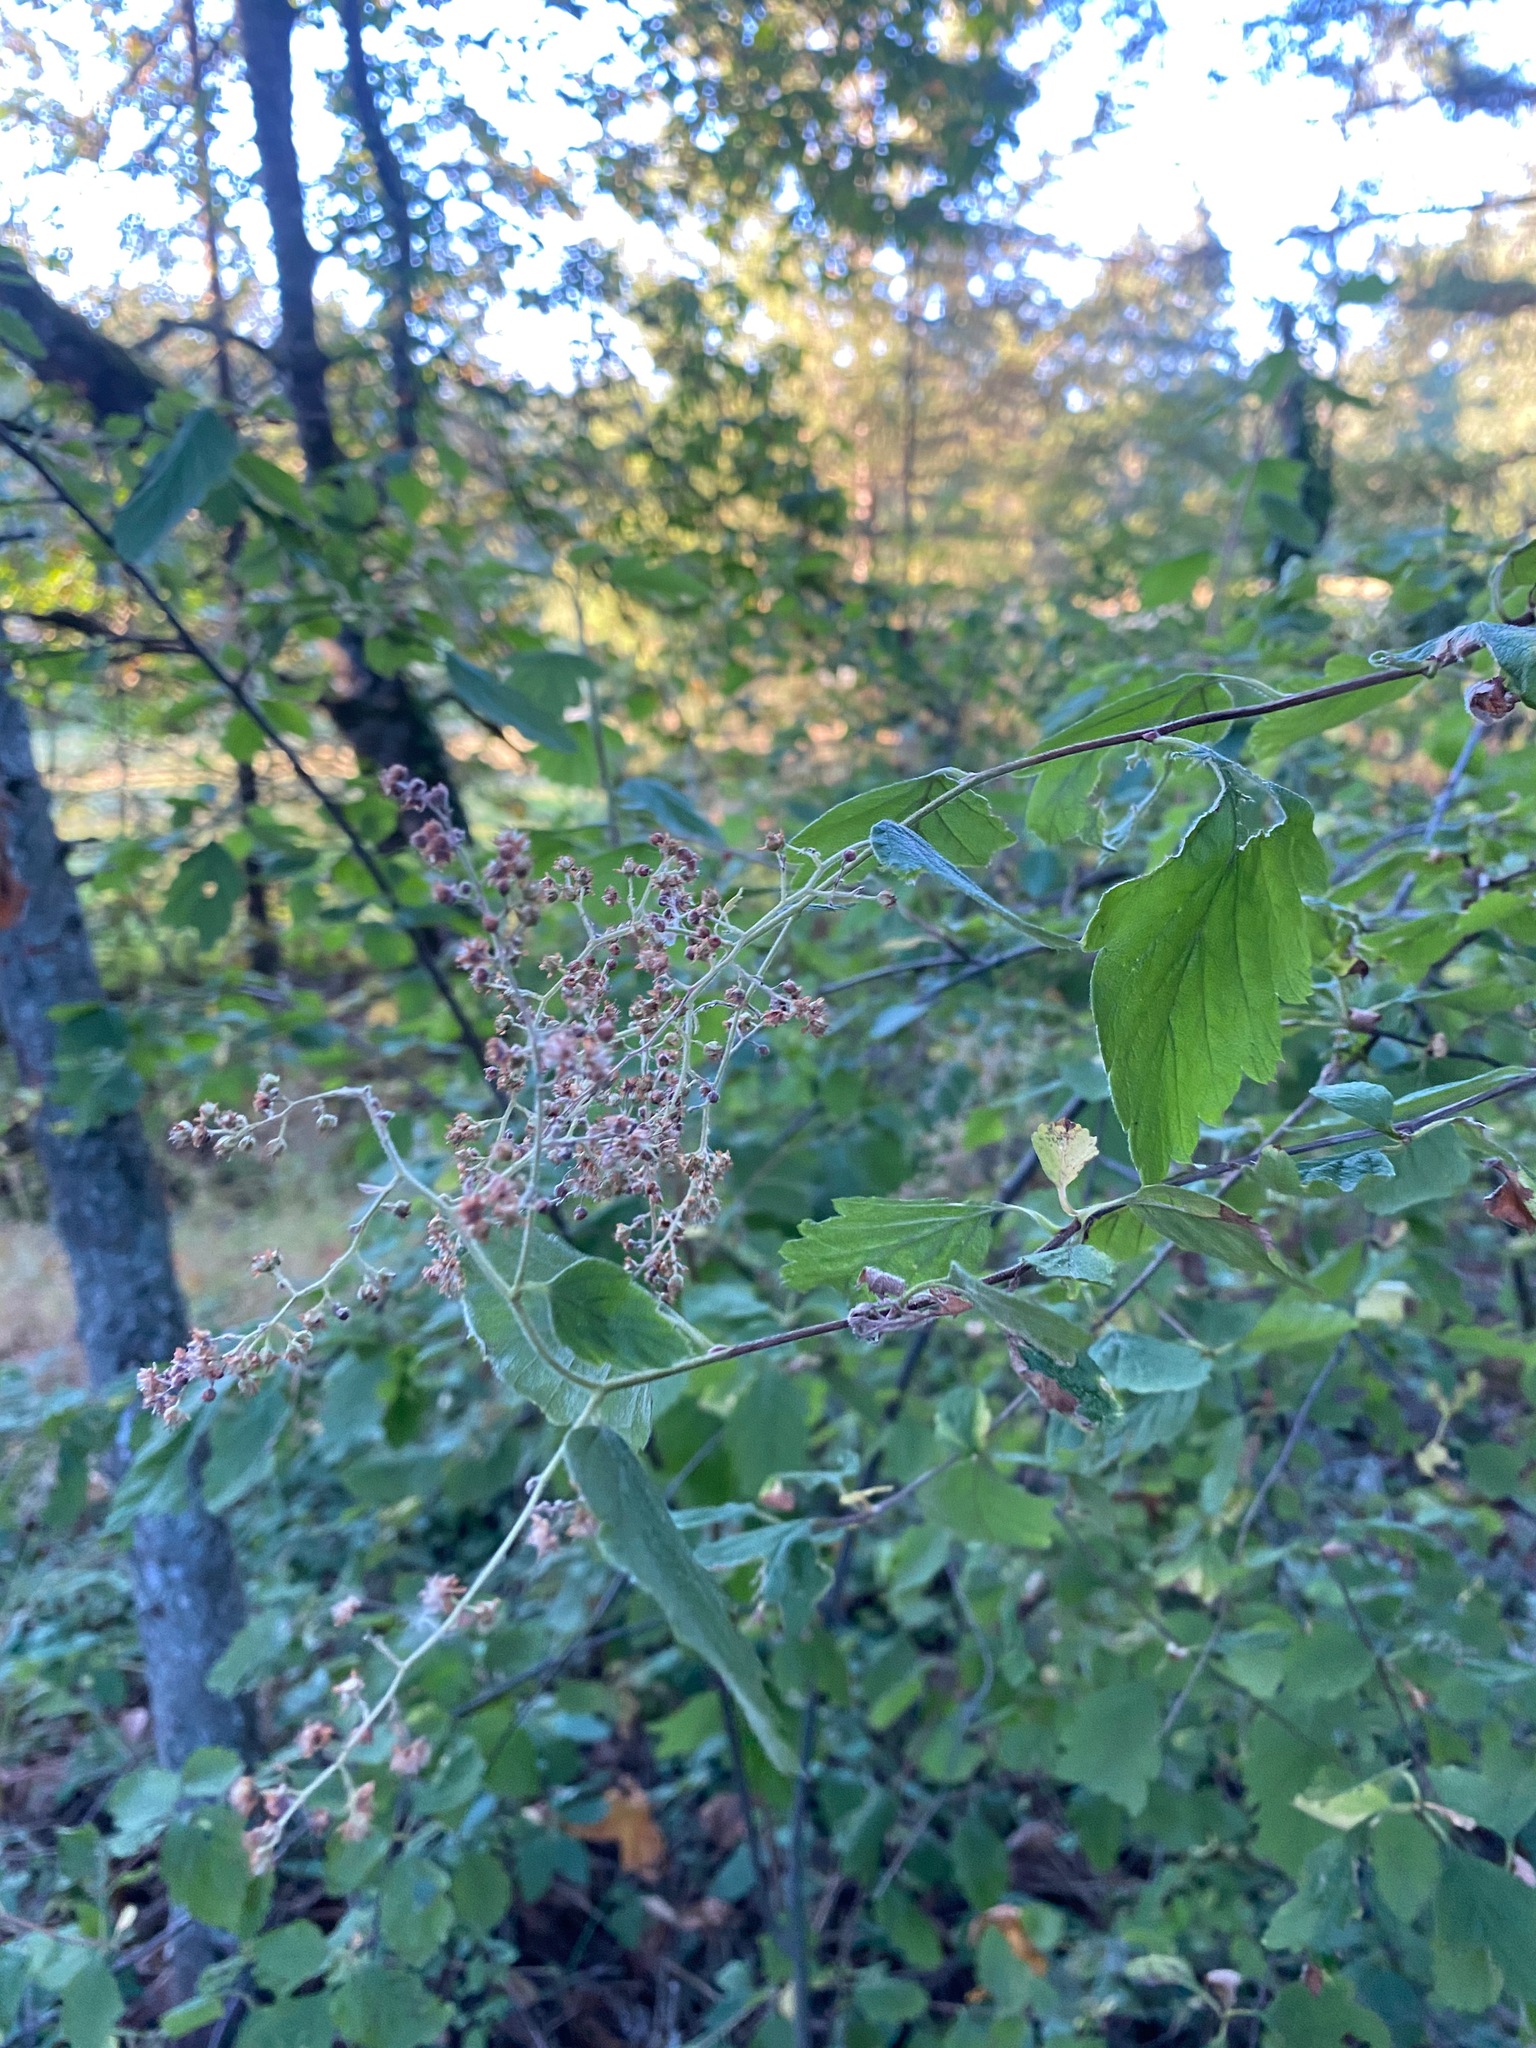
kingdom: Plantae
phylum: Tracheophyta
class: Magnoliopsida
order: Rosales
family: Rosaceae
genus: Holodiscus
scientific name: Holodiscus discolor
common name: Oceanspray
